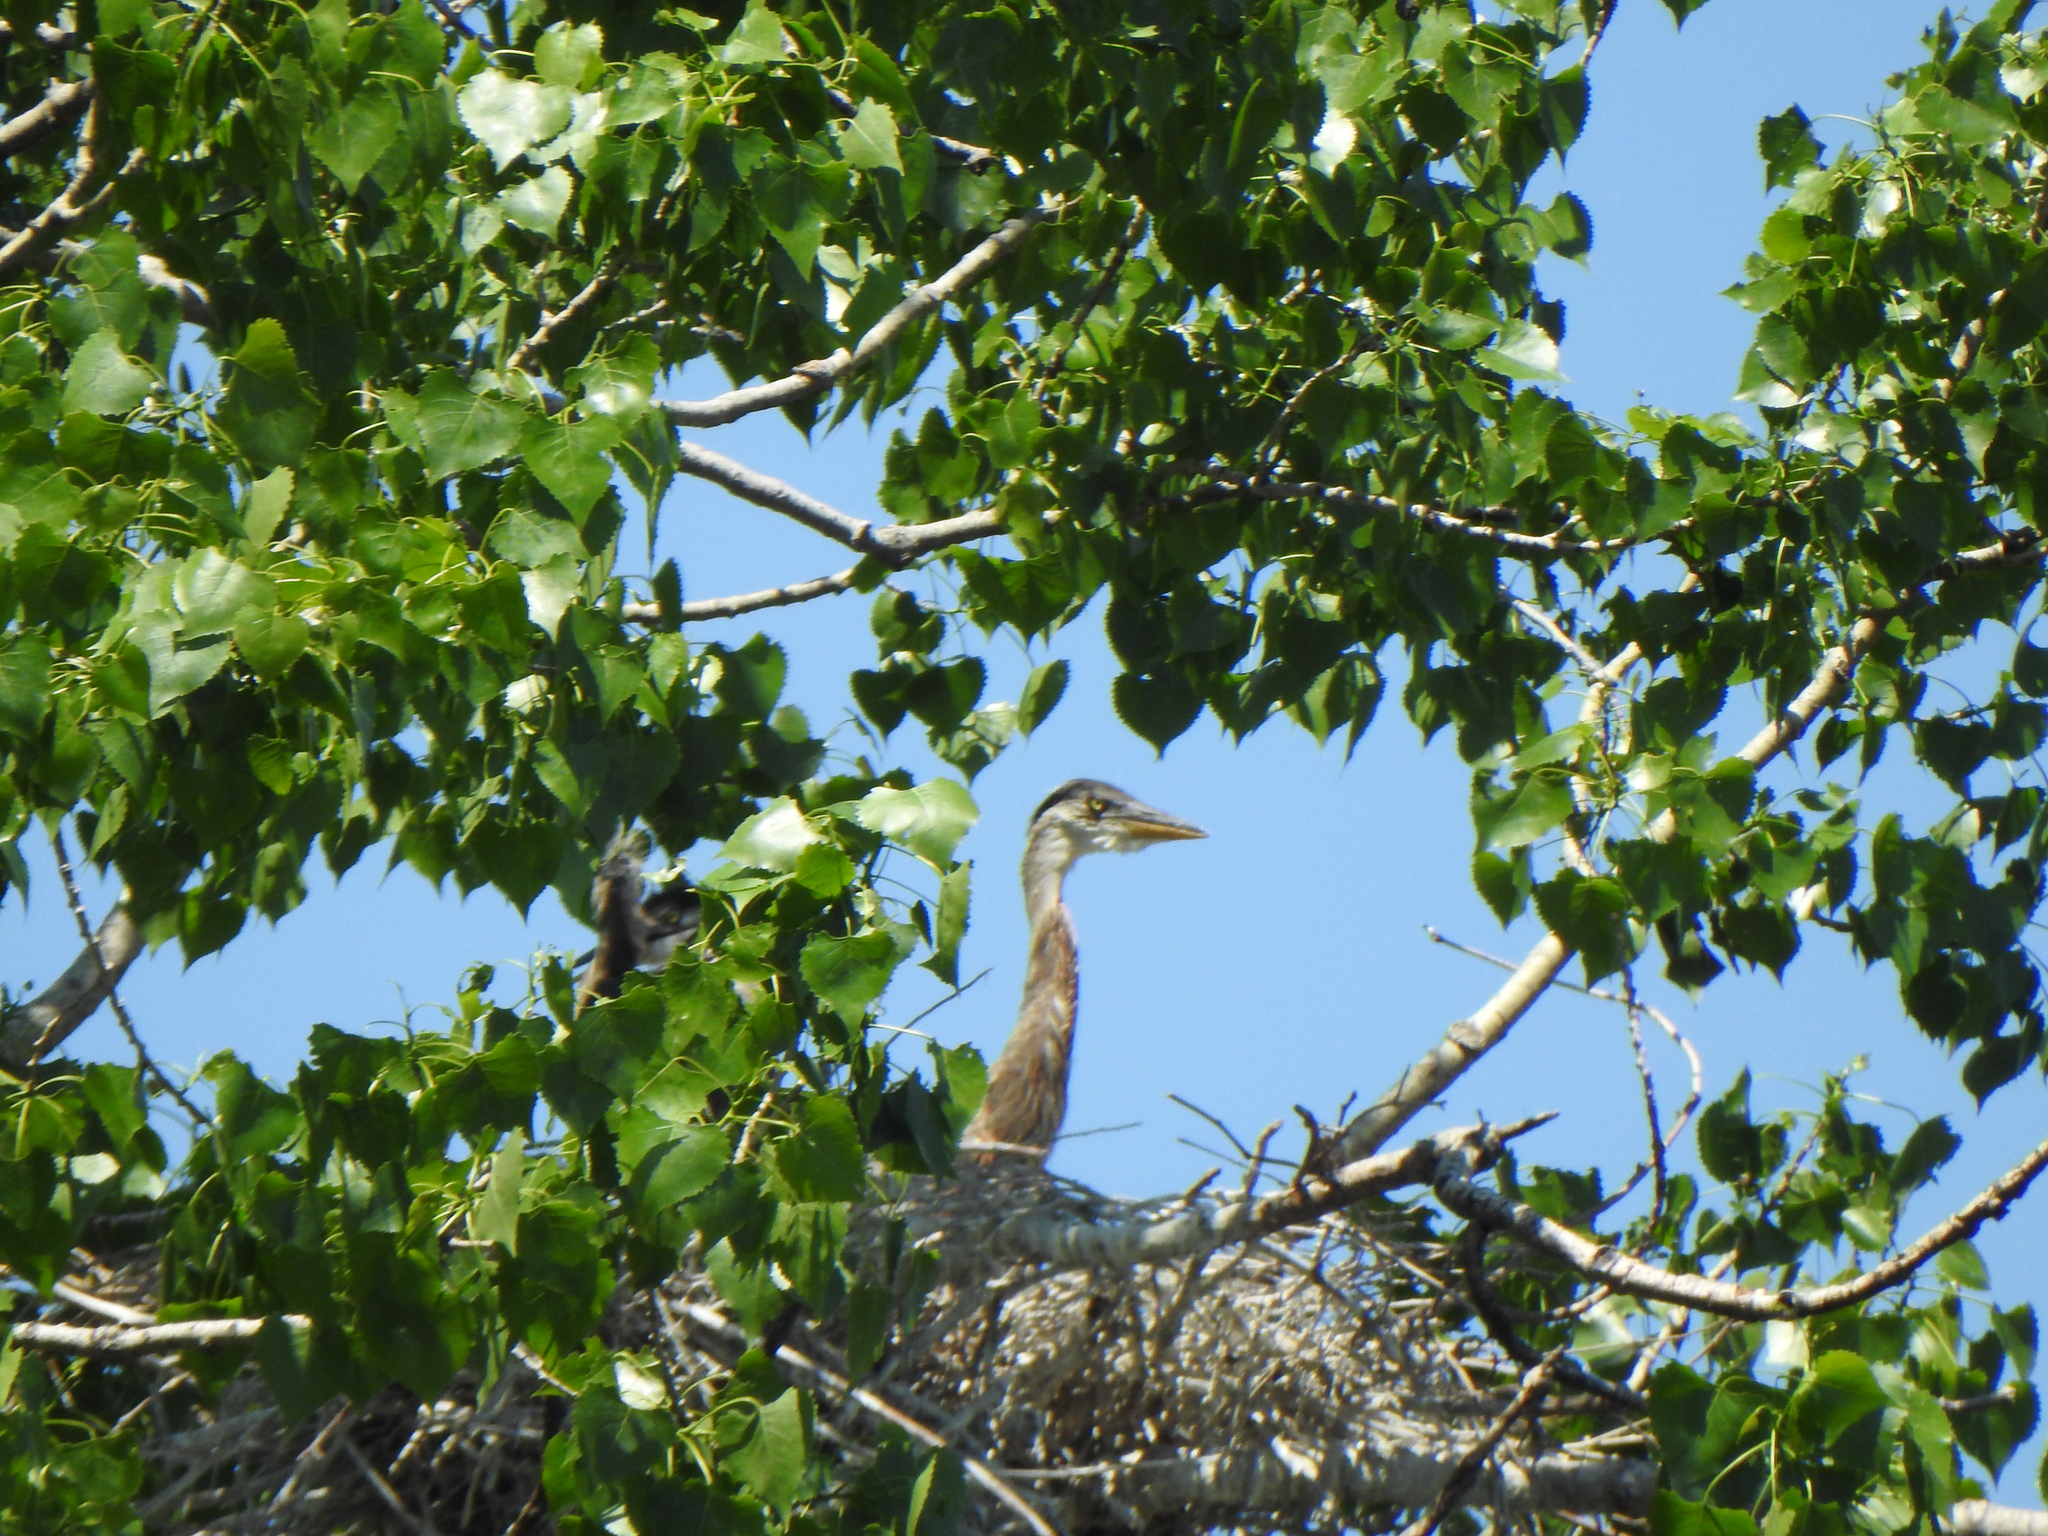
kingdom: Animalia
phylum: Chordata
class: Aves
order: Pelecaniformes
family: Ardeidae
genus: Ardea
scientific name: Ardea herodias
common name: Great blue heron
